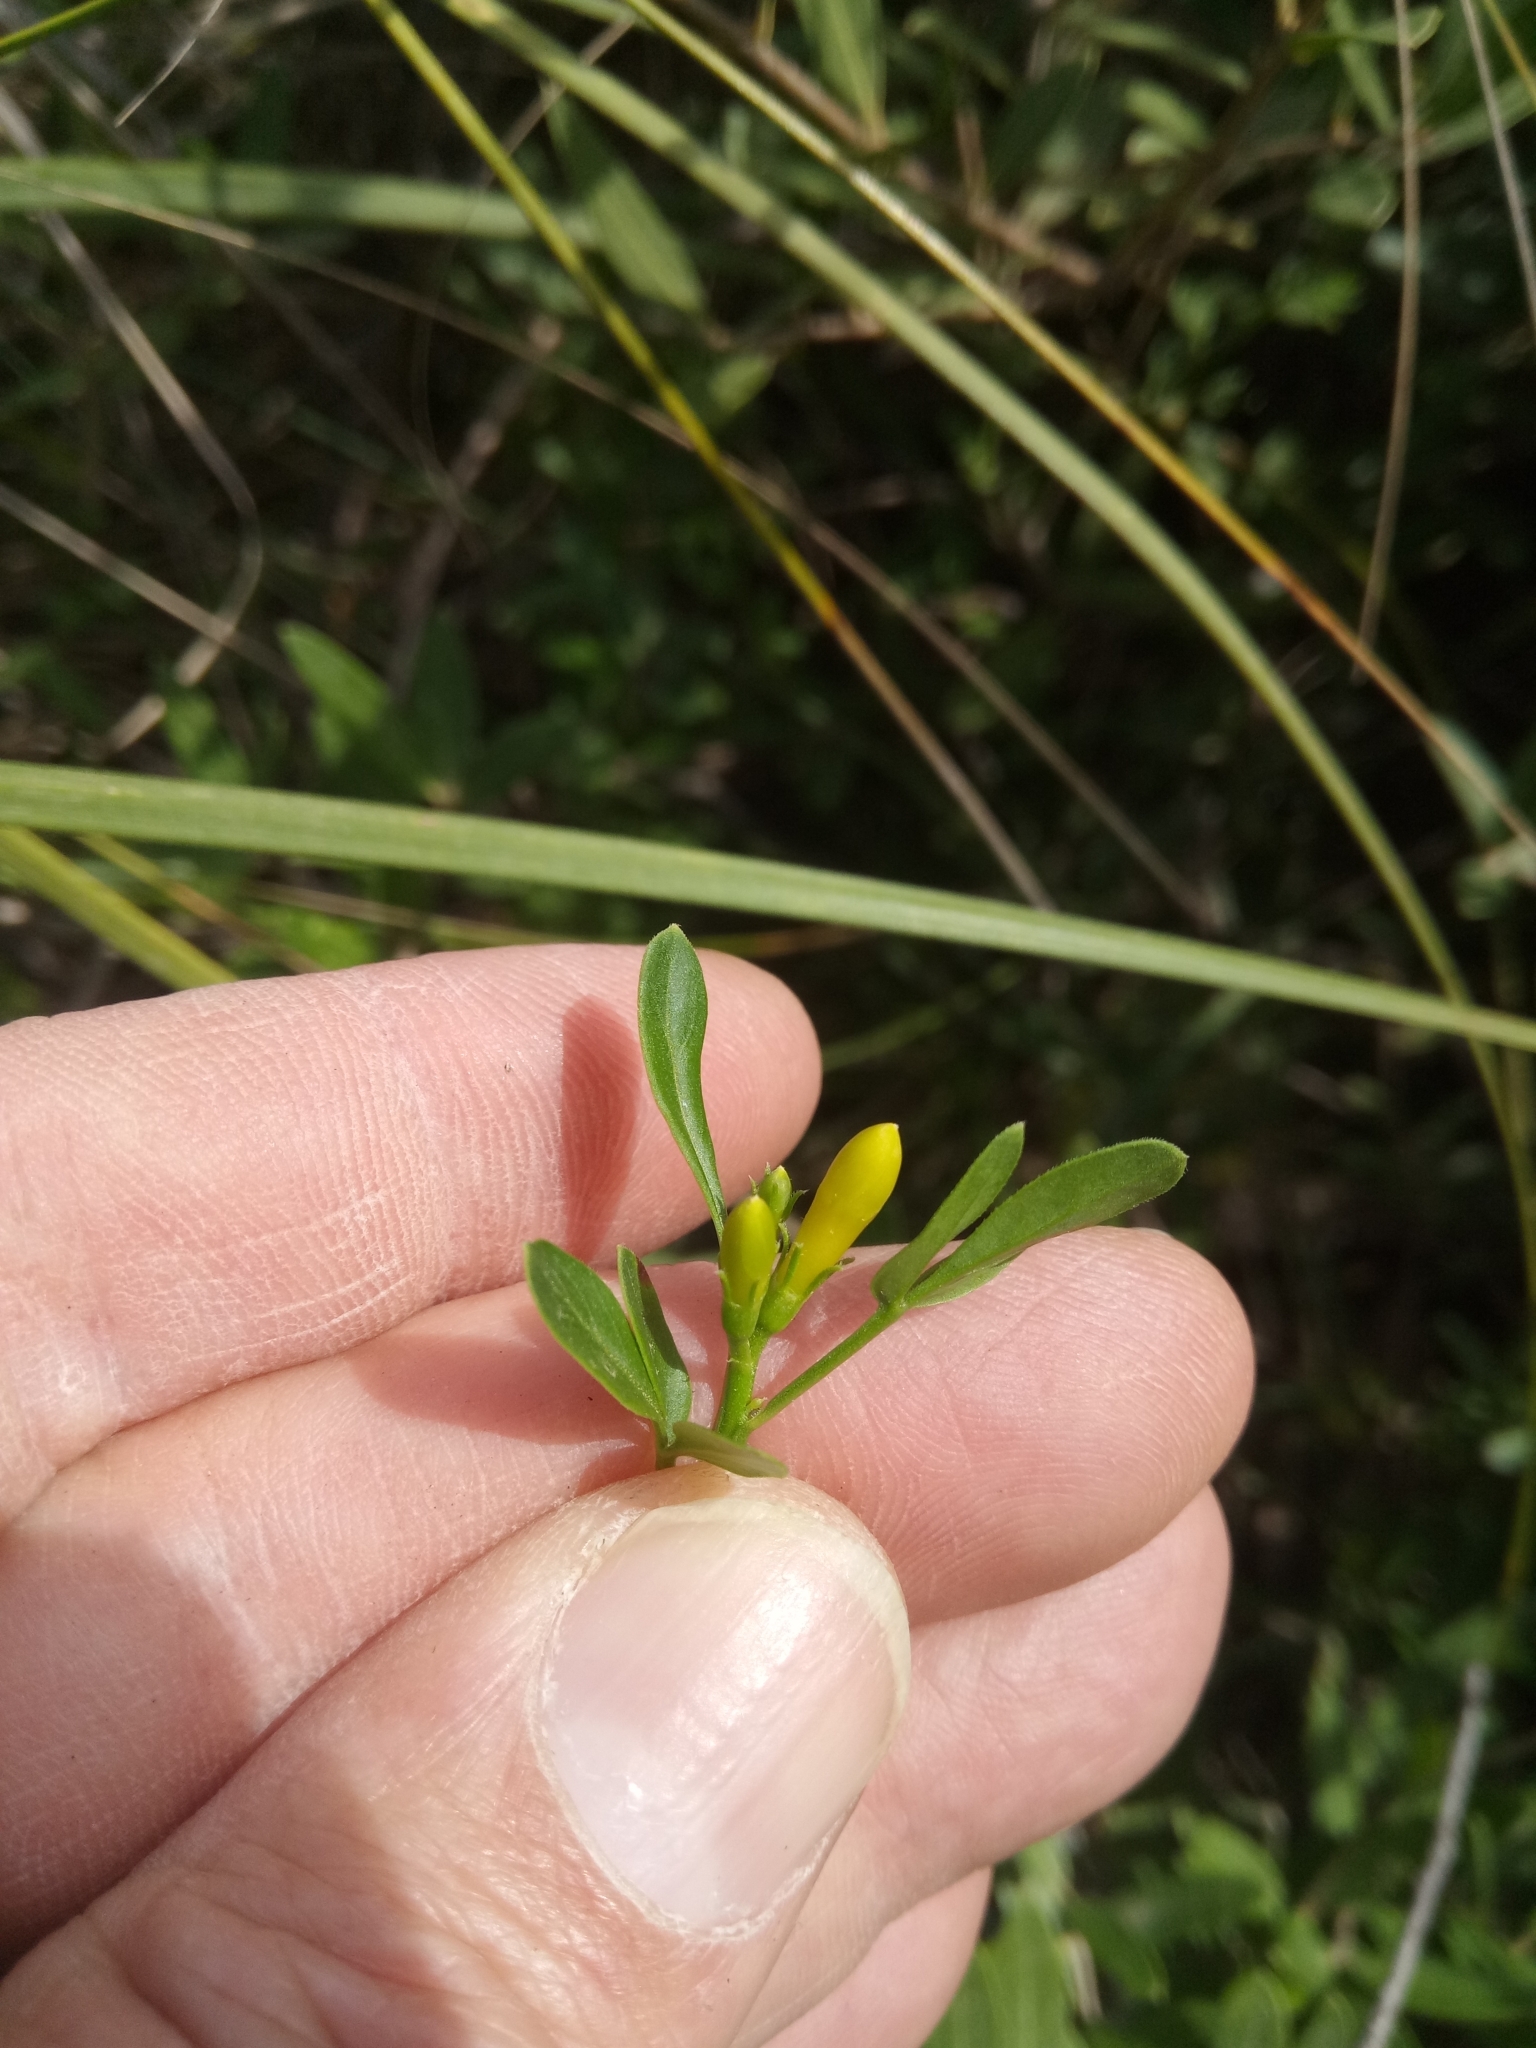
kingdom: Plantae
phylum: Tracheophyta
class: Magnoliopsida
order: Lamiales
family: Oleaceae
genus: Chrysojasminum
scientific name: Chrysojasminum fruticans
